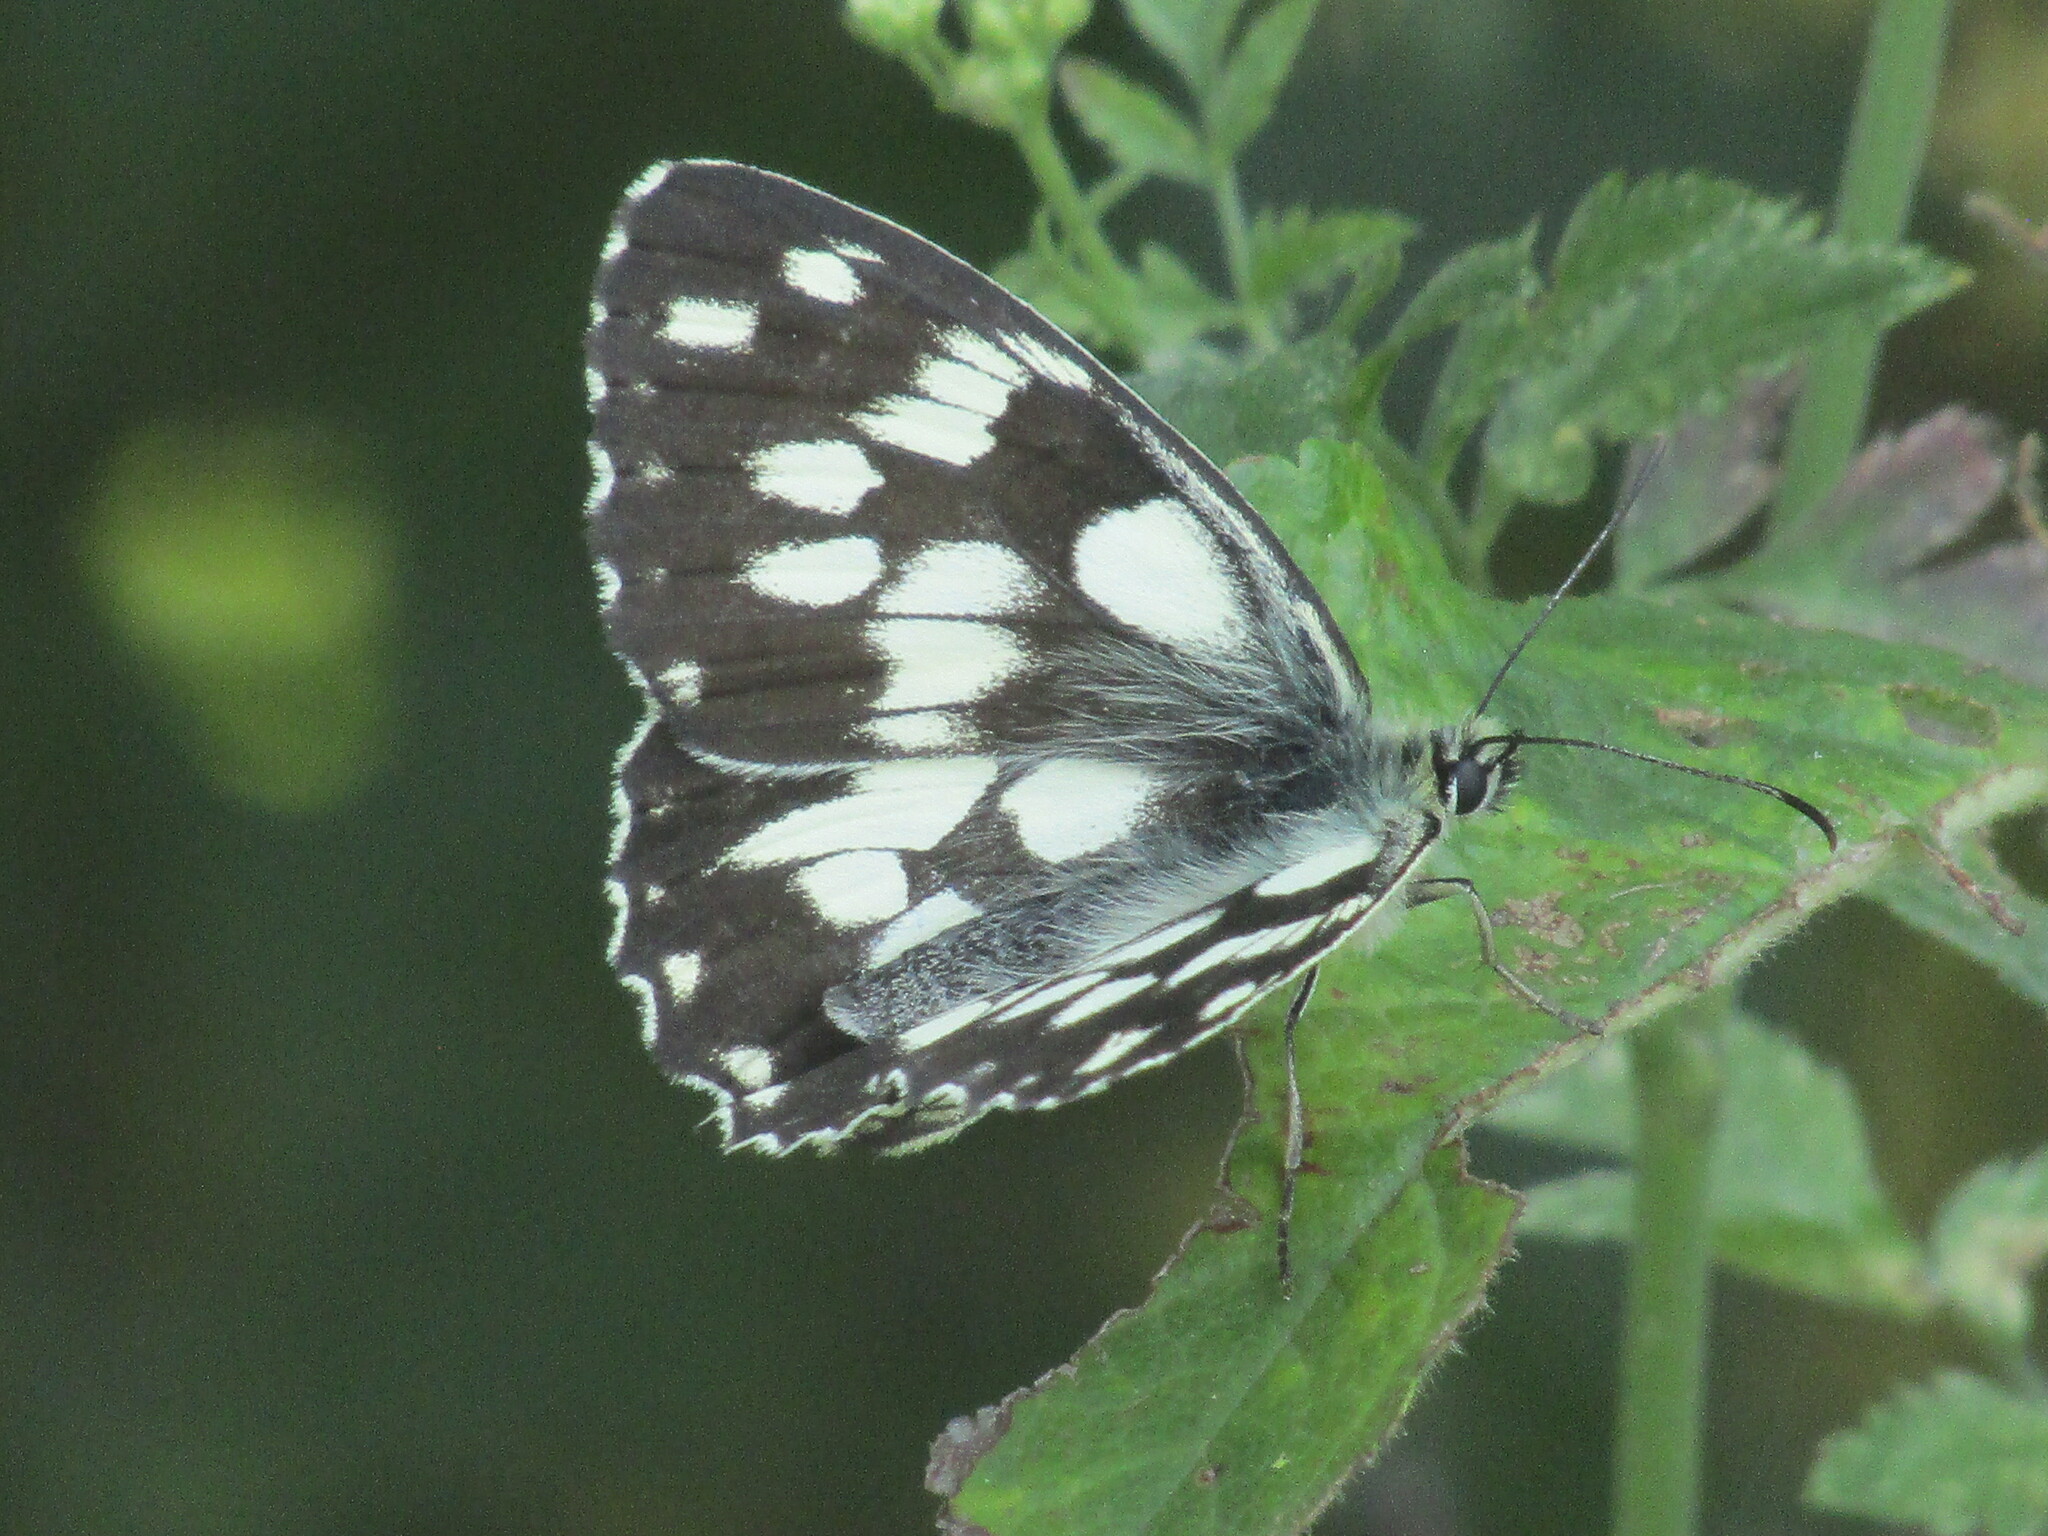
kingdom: Animalia
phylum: Arthropoda
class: Insecta
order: Lepidoptera
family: Nymphalidae
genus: Melanargia
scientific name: Melanargia galathea
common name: Marbled white
